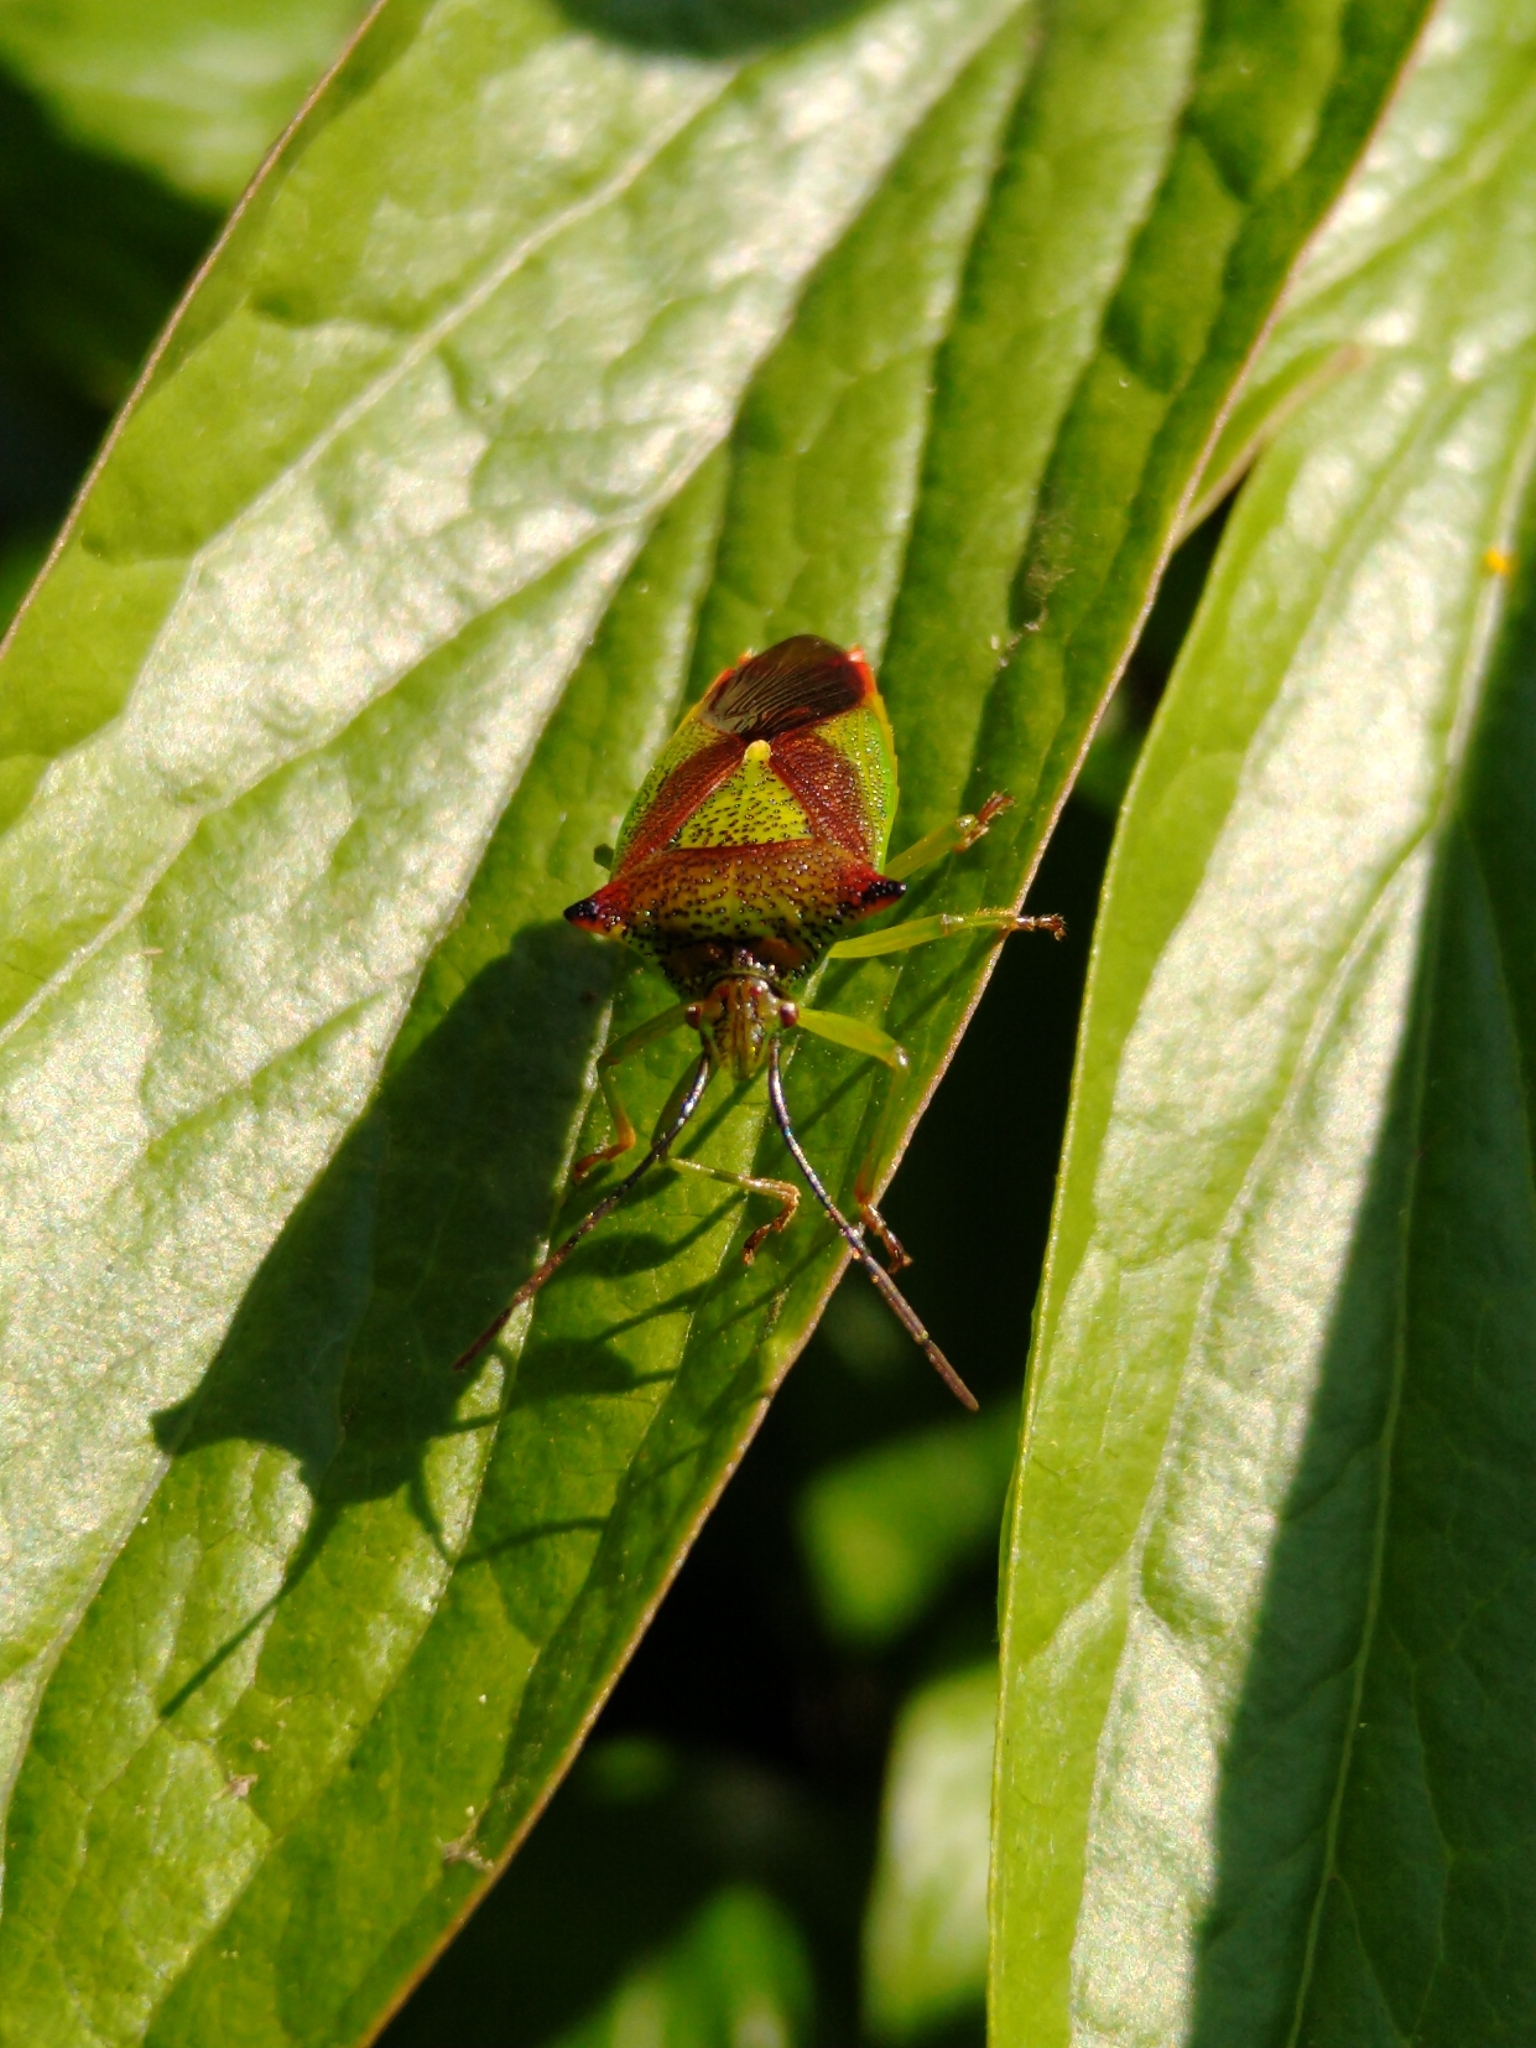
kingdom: Animalia
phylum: Arthropoda
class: Insecta
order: Hemiptera
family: Acanthosomatidae
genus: Acanthosoma
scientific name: Acanthosoma haemorrhoidale
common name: Hawthorn shieldbug
